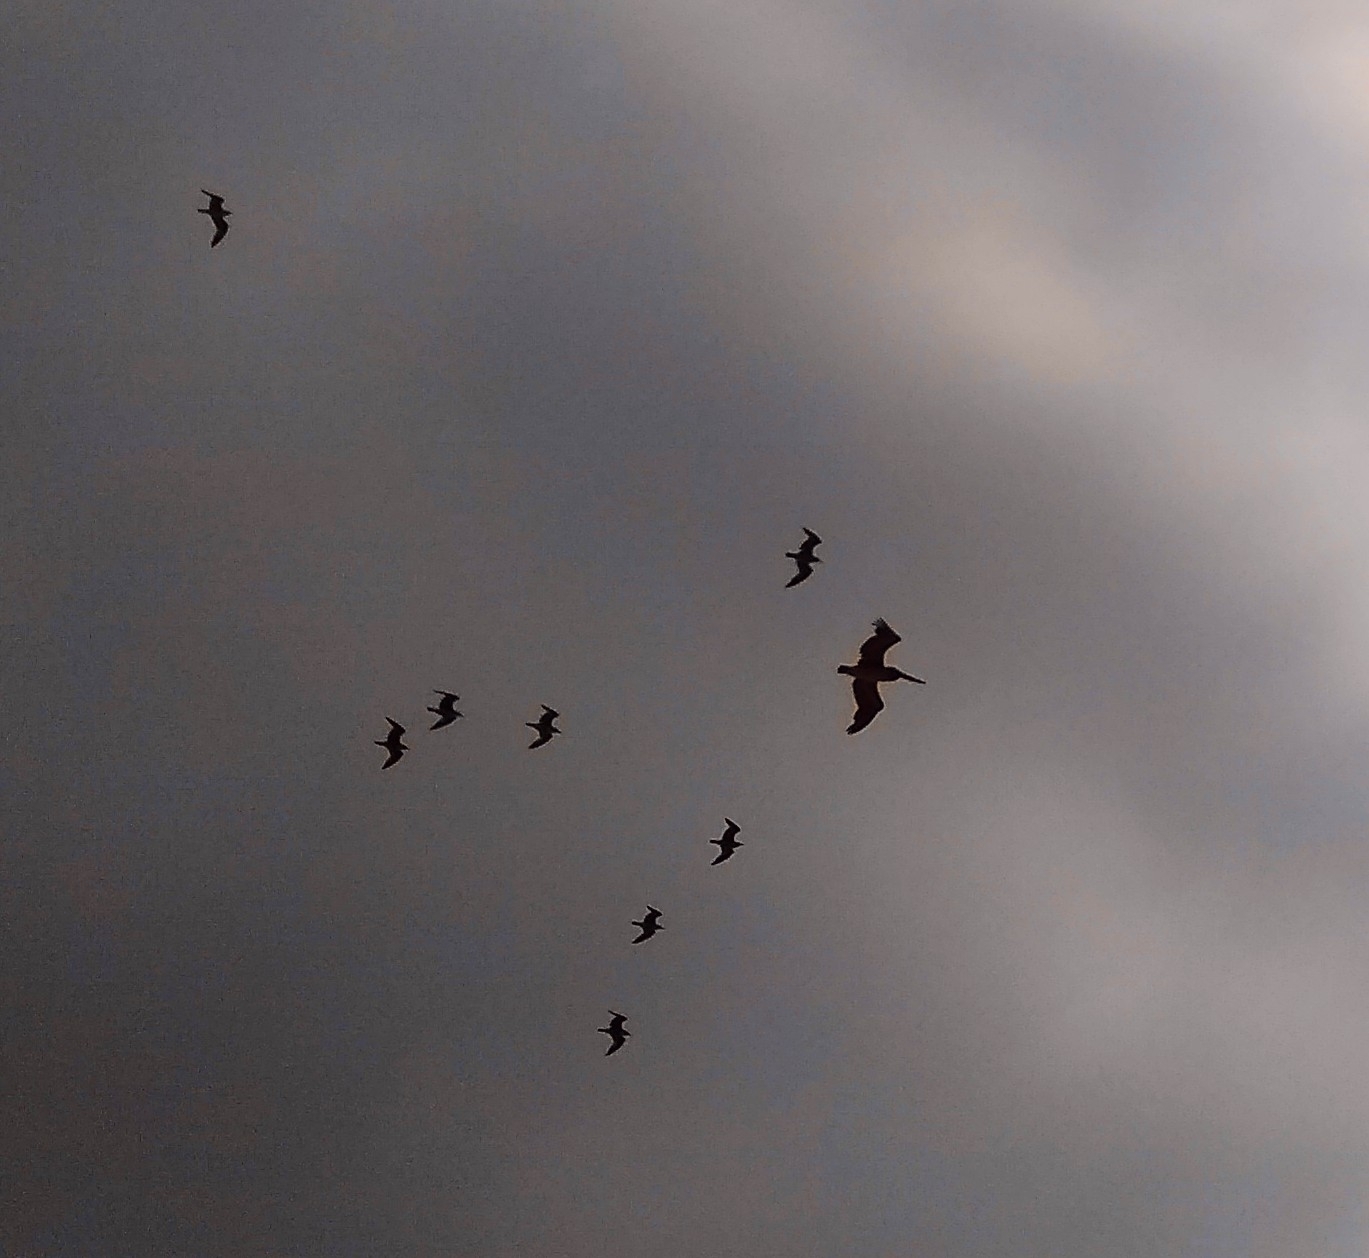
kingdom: Animalia
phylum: Chordata
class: Aves
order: Pelecaniformes
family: Pelecanidae
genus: Pelecanus
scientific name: Pelecanus occidentalis
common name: Brown pelican
